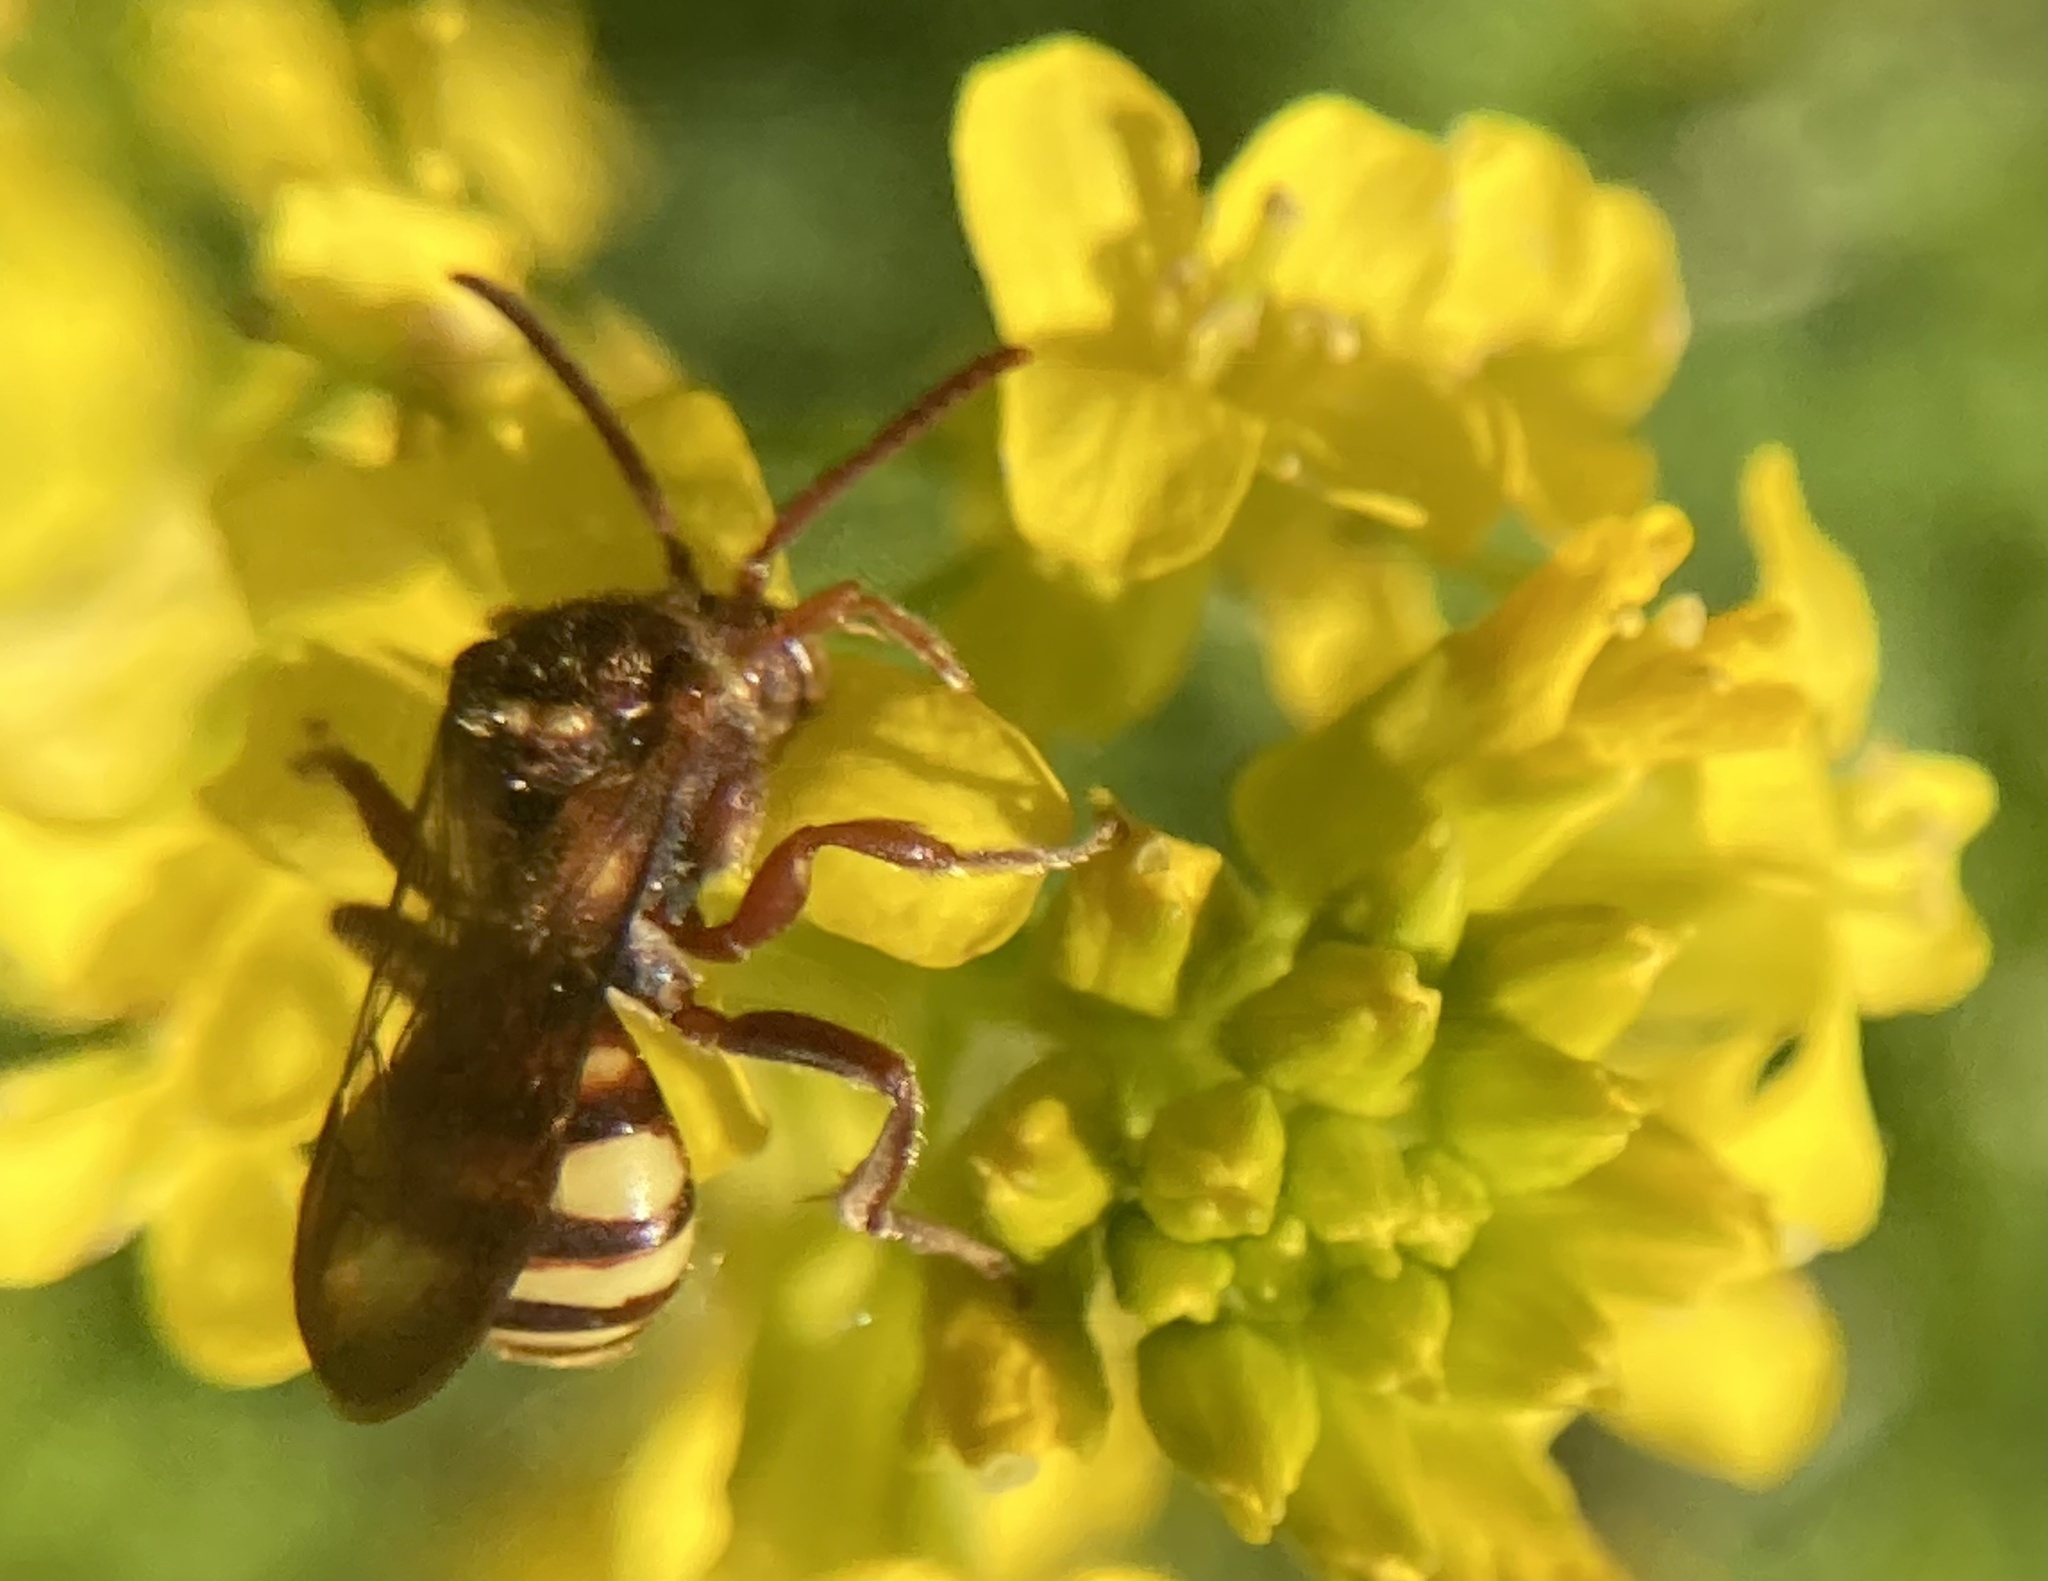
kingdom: Animalia
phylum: Arthropoda
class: Insecta
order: Hymenoptera
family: Apidae
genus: Nomada
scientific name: Nomada imbricata
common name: Imbricate cuckoo nomad bee
